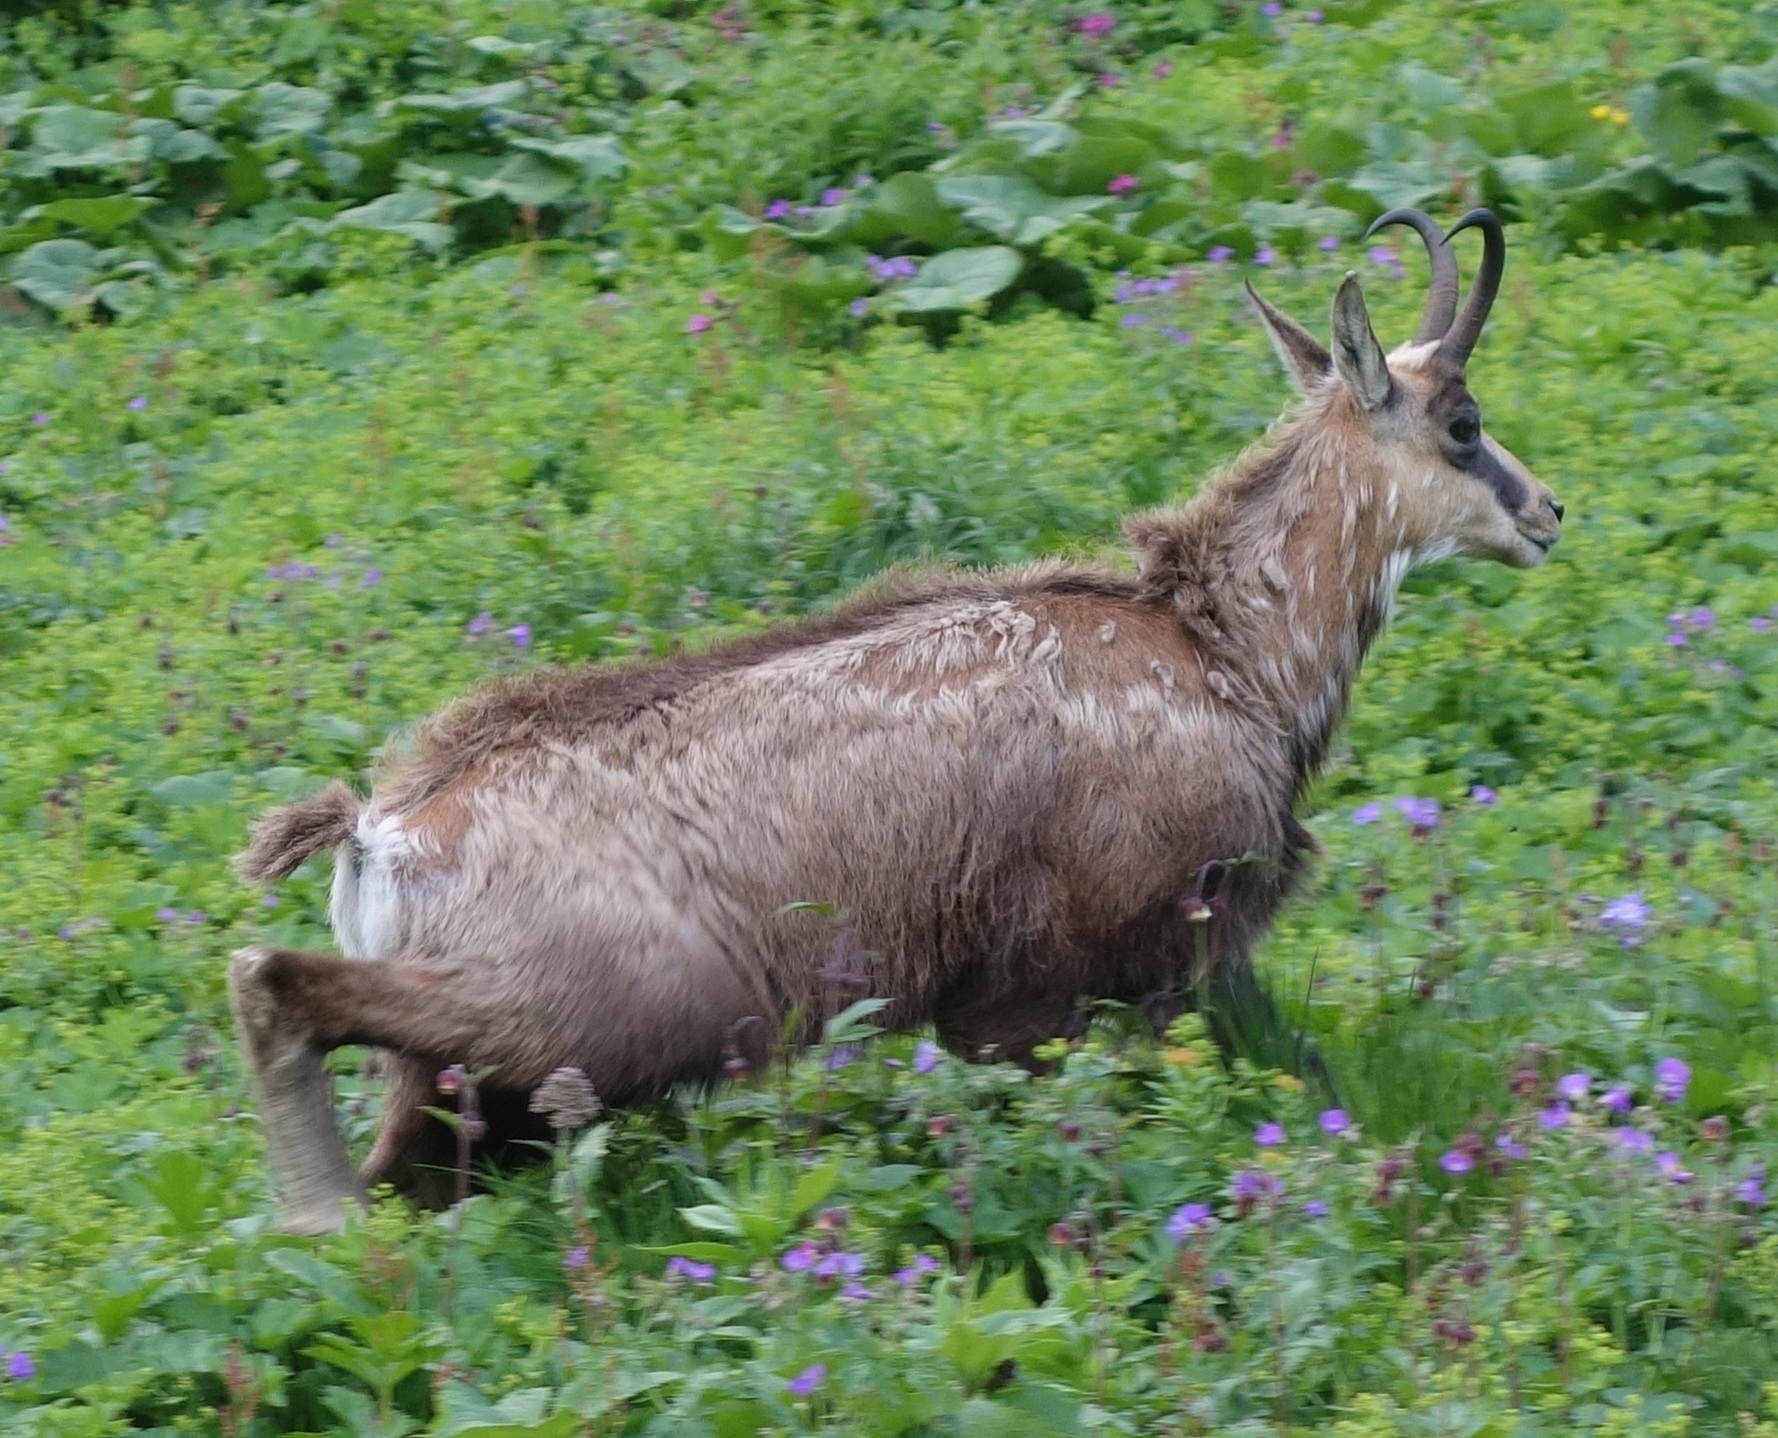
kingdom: Animalia
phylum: Chordata
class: Mammalia
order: Artiodactyla
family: Bovidae
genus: Rupicapra
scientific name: Rupicapra rupicapra
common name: Chamois
